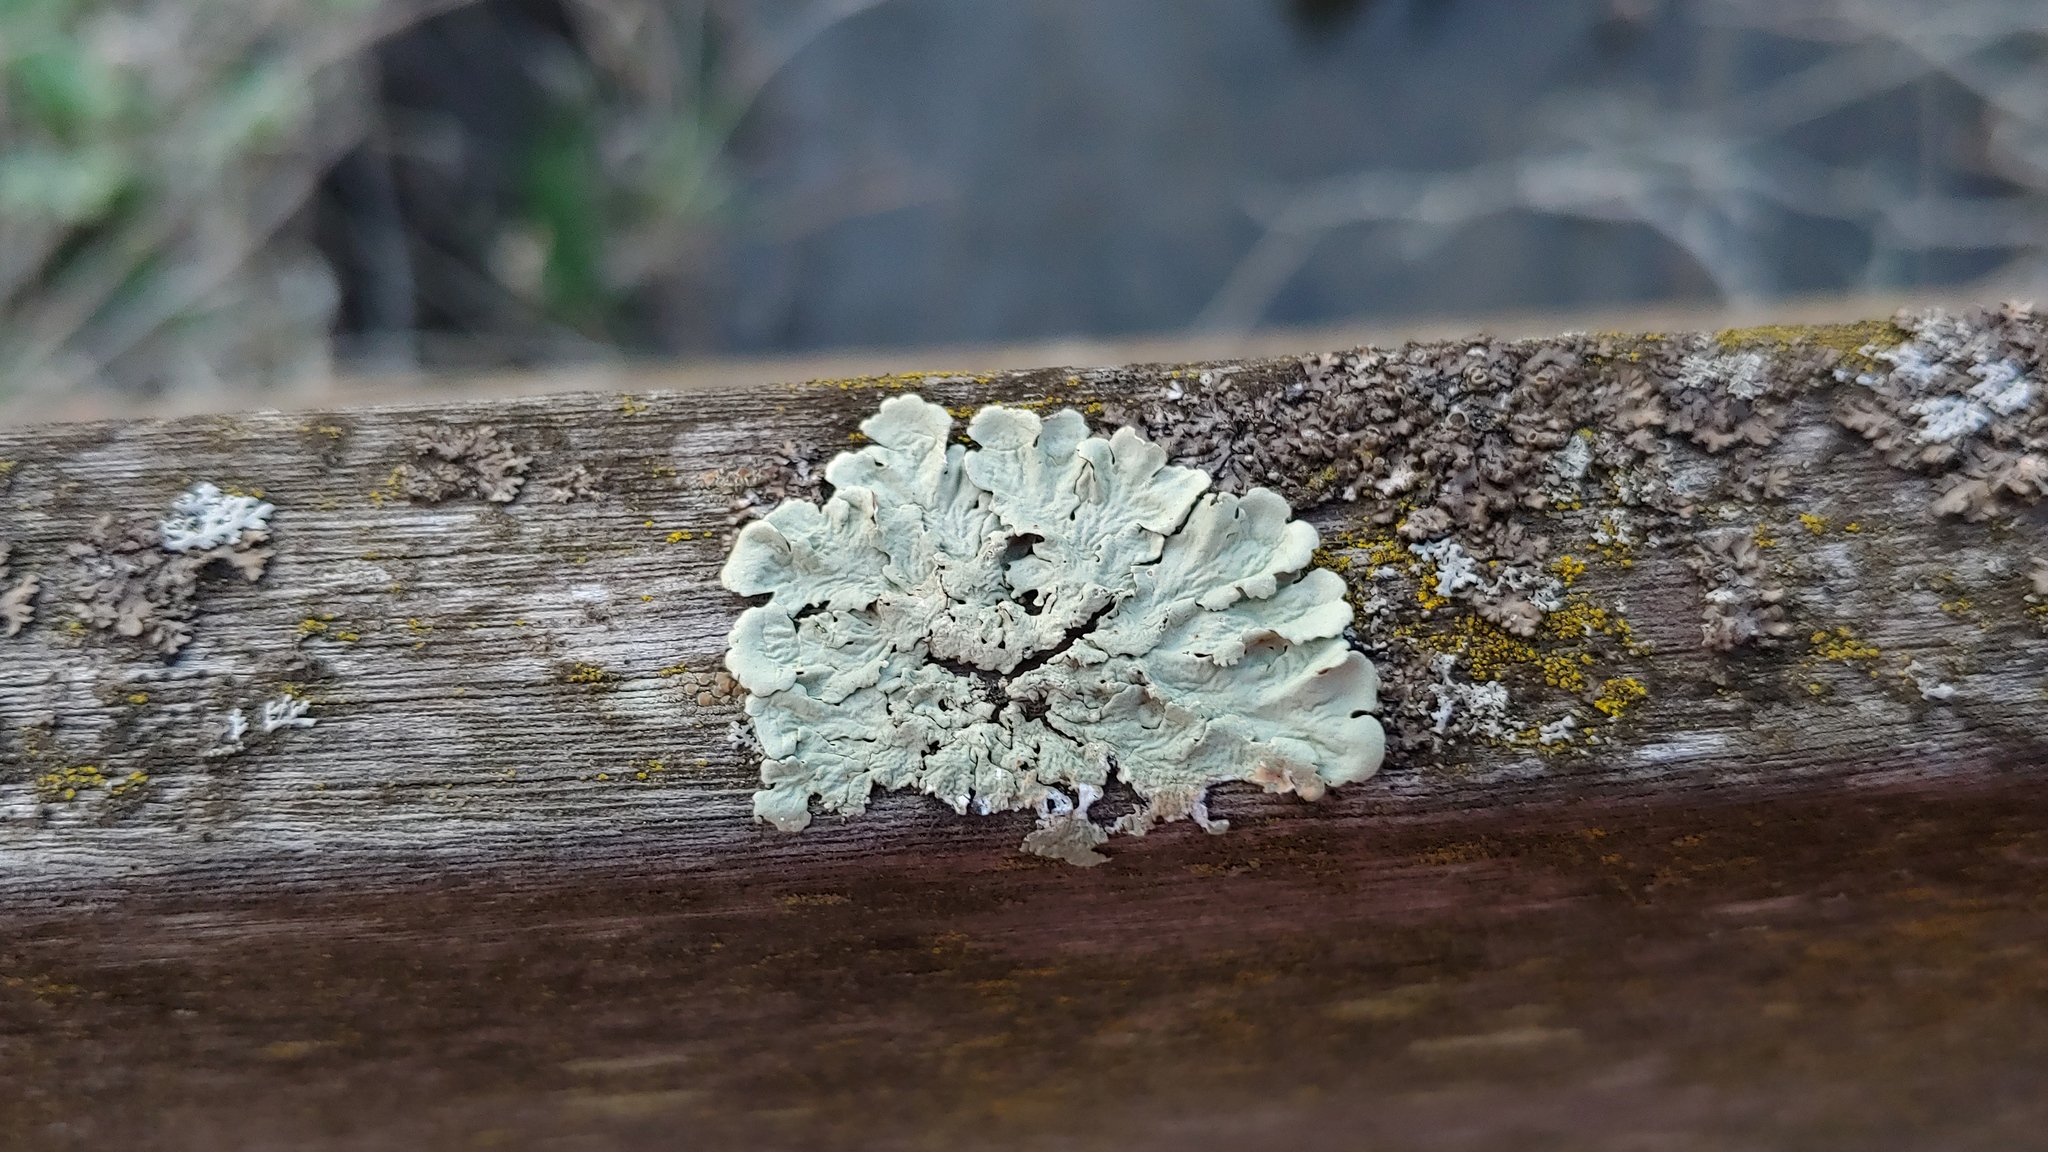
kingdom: Fungi
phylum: Ascomycota
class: Lecanoromycetes
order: Lecanorales
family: Parmeliaceae
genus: Flavoparmelia
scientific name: Flavoparmelia caperata
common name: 40-mile per hour lichen
